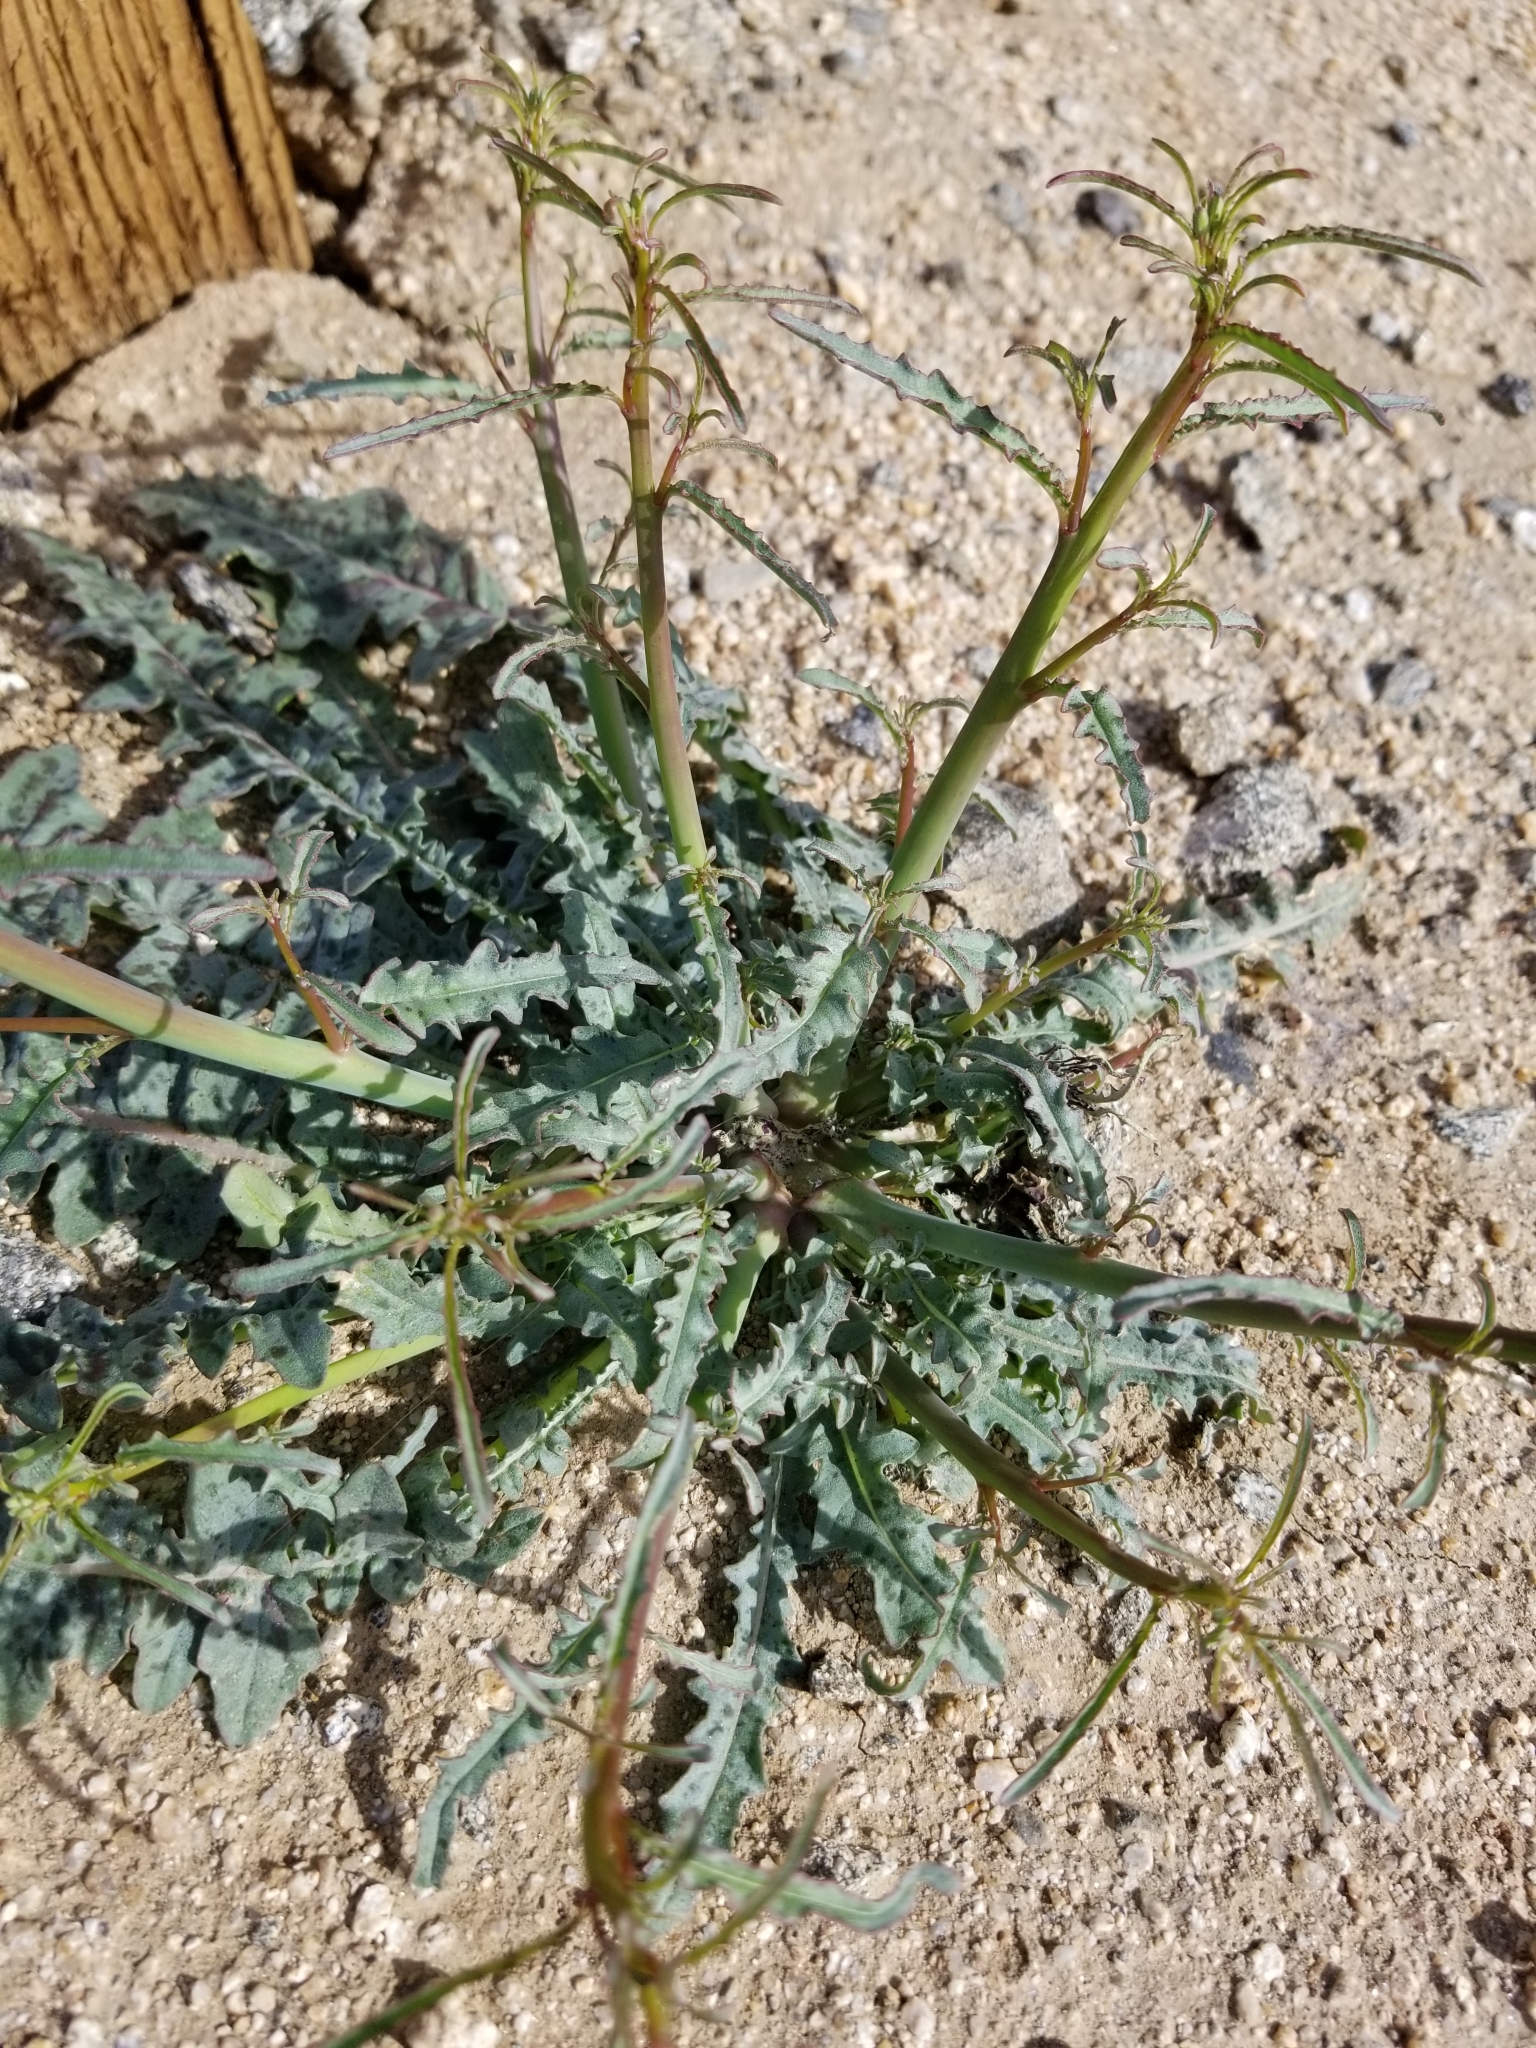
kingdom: Plantae
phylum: Tracheophyta
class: Magnoliopsida
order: Myrtales
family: Onagraceae
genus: Eulobus
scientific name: Eulobus californicus
